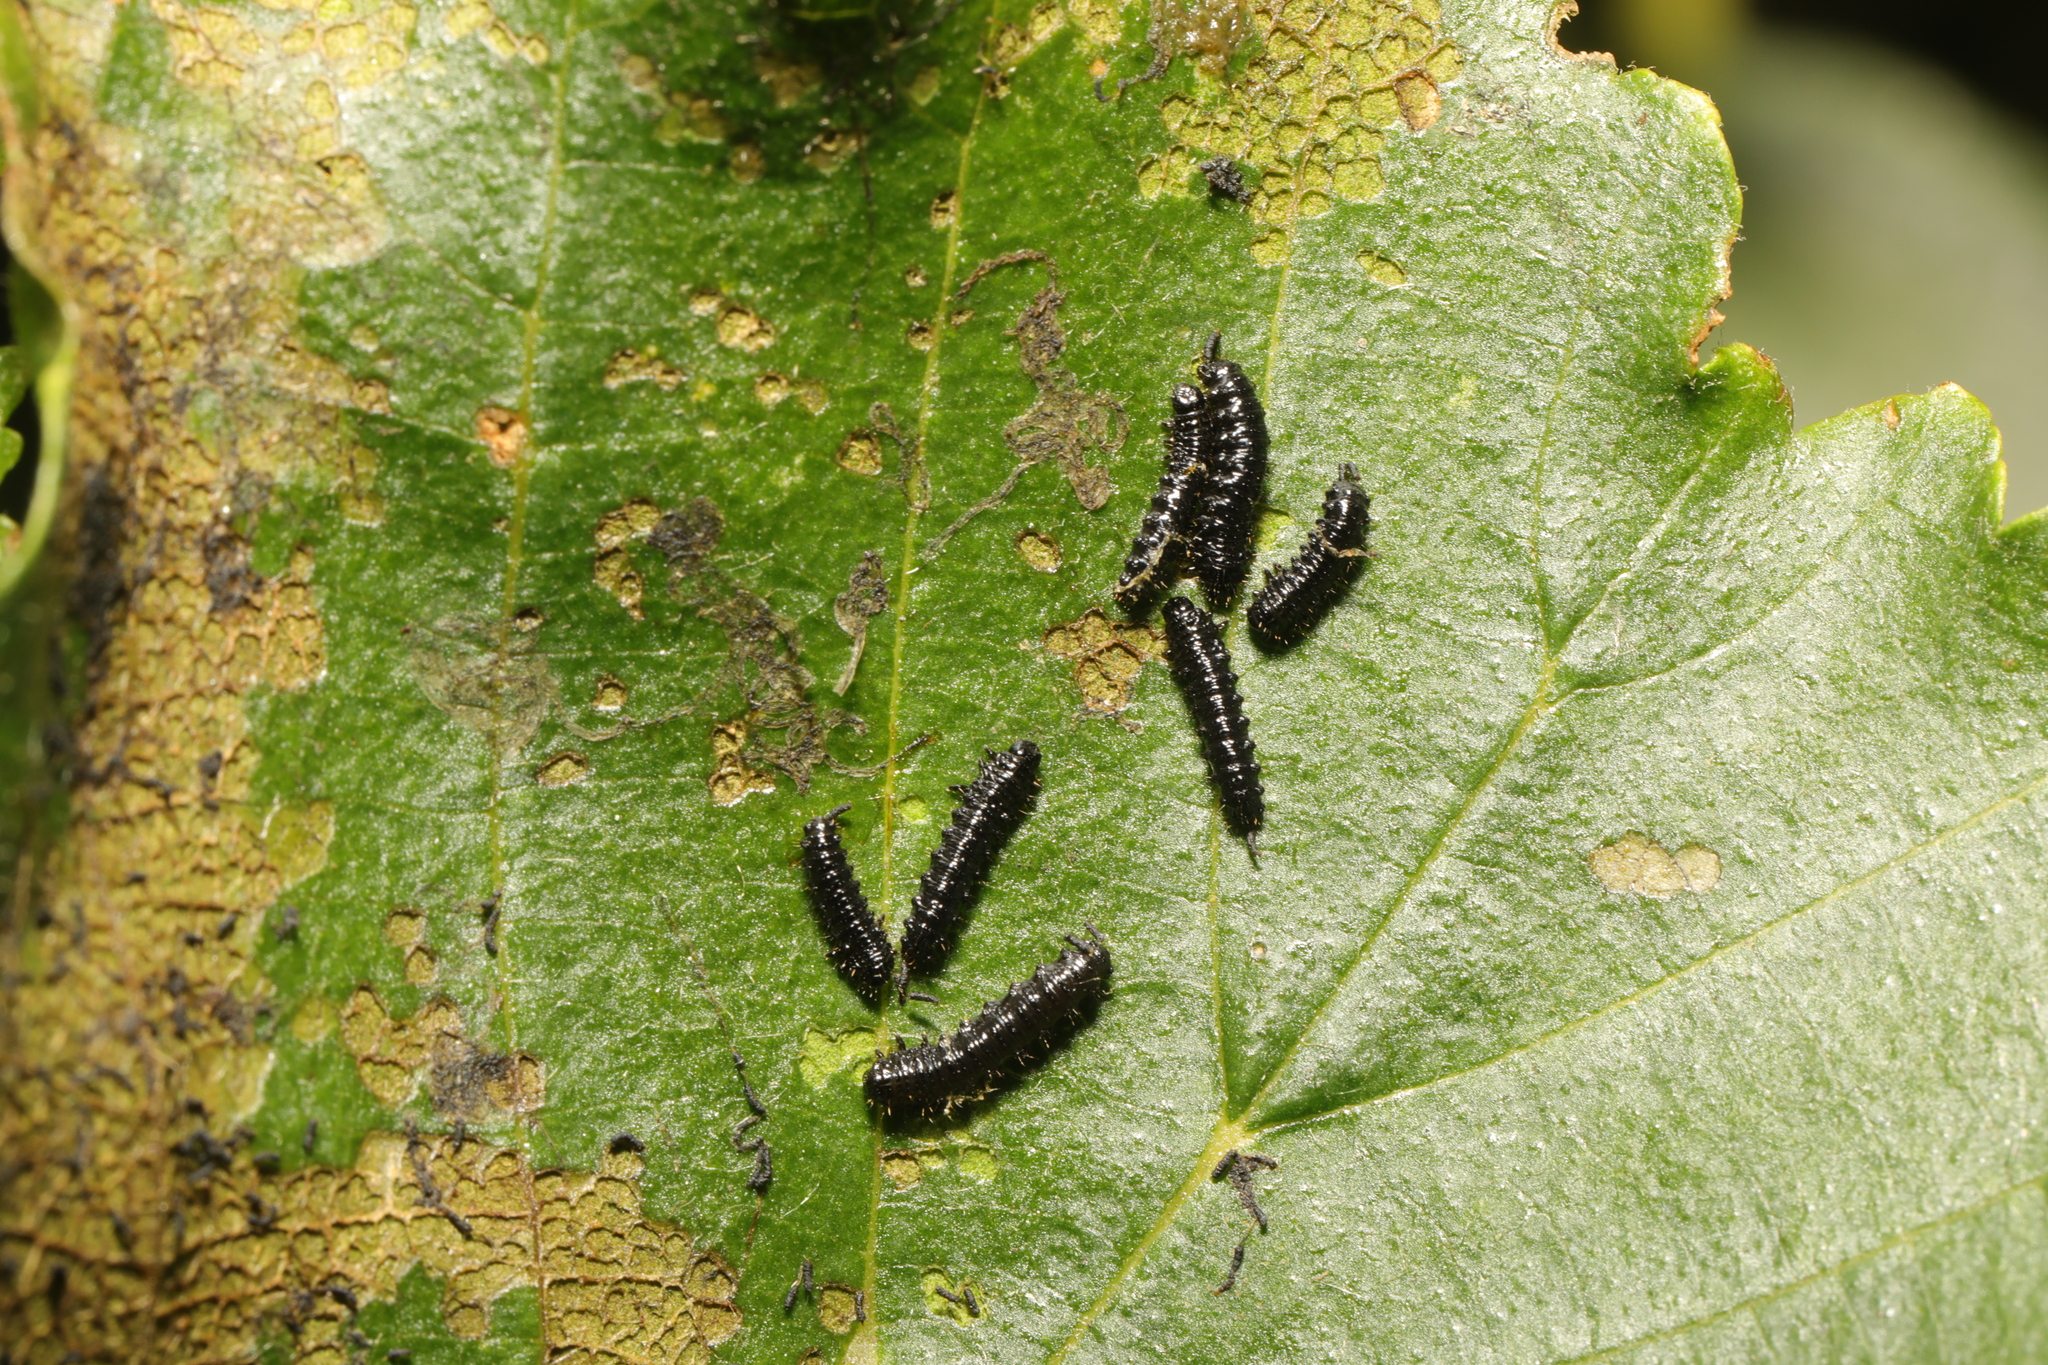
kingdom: Animalia
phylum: Arthropoda
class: Insecta
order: Coleoptera
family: Chrysomelidae
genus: Agelastica
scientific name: Agelastica alni
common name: Alder leaf beetle
